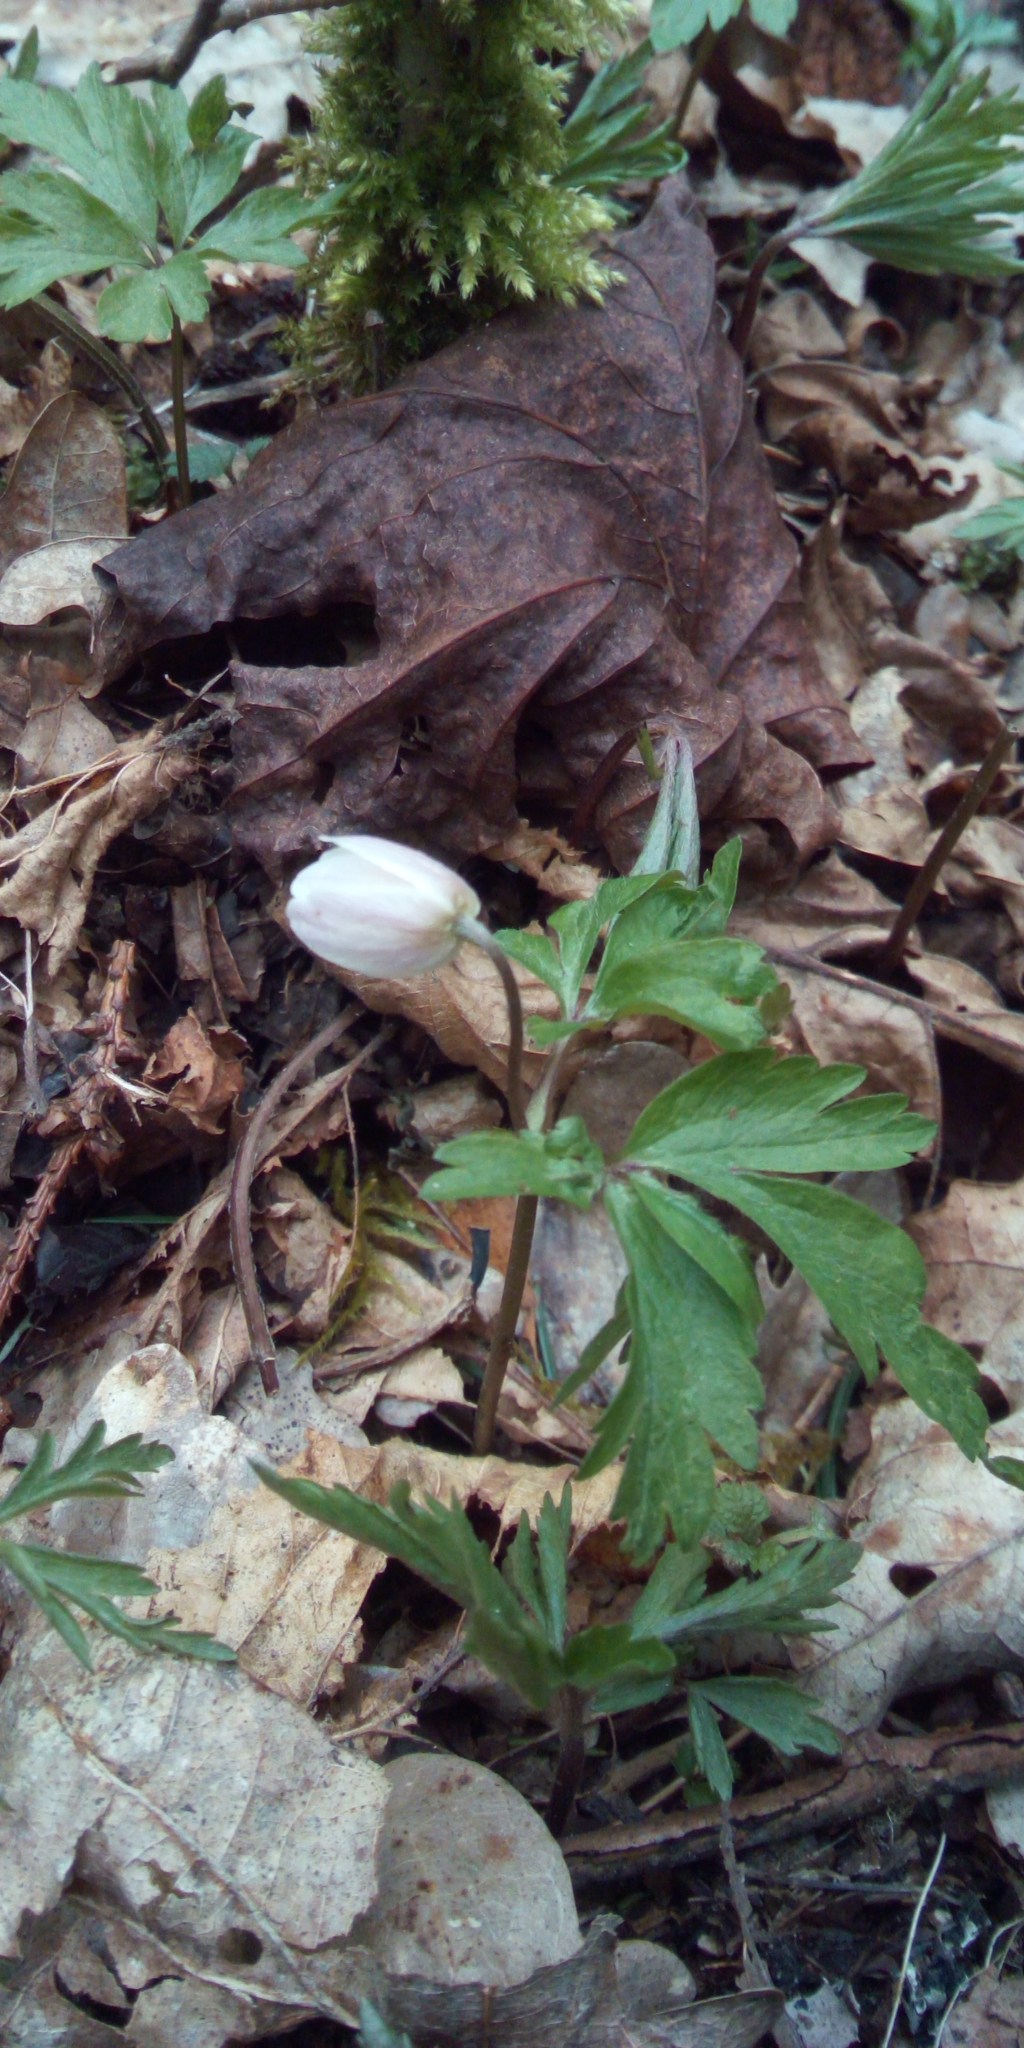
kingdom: Plantae
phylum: Tracheophyta
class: Magnoliopsida
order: Ranunculales
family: Ranunculaceae
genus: Anemone
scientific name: Anemone nemorosa
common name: Wood anemone
